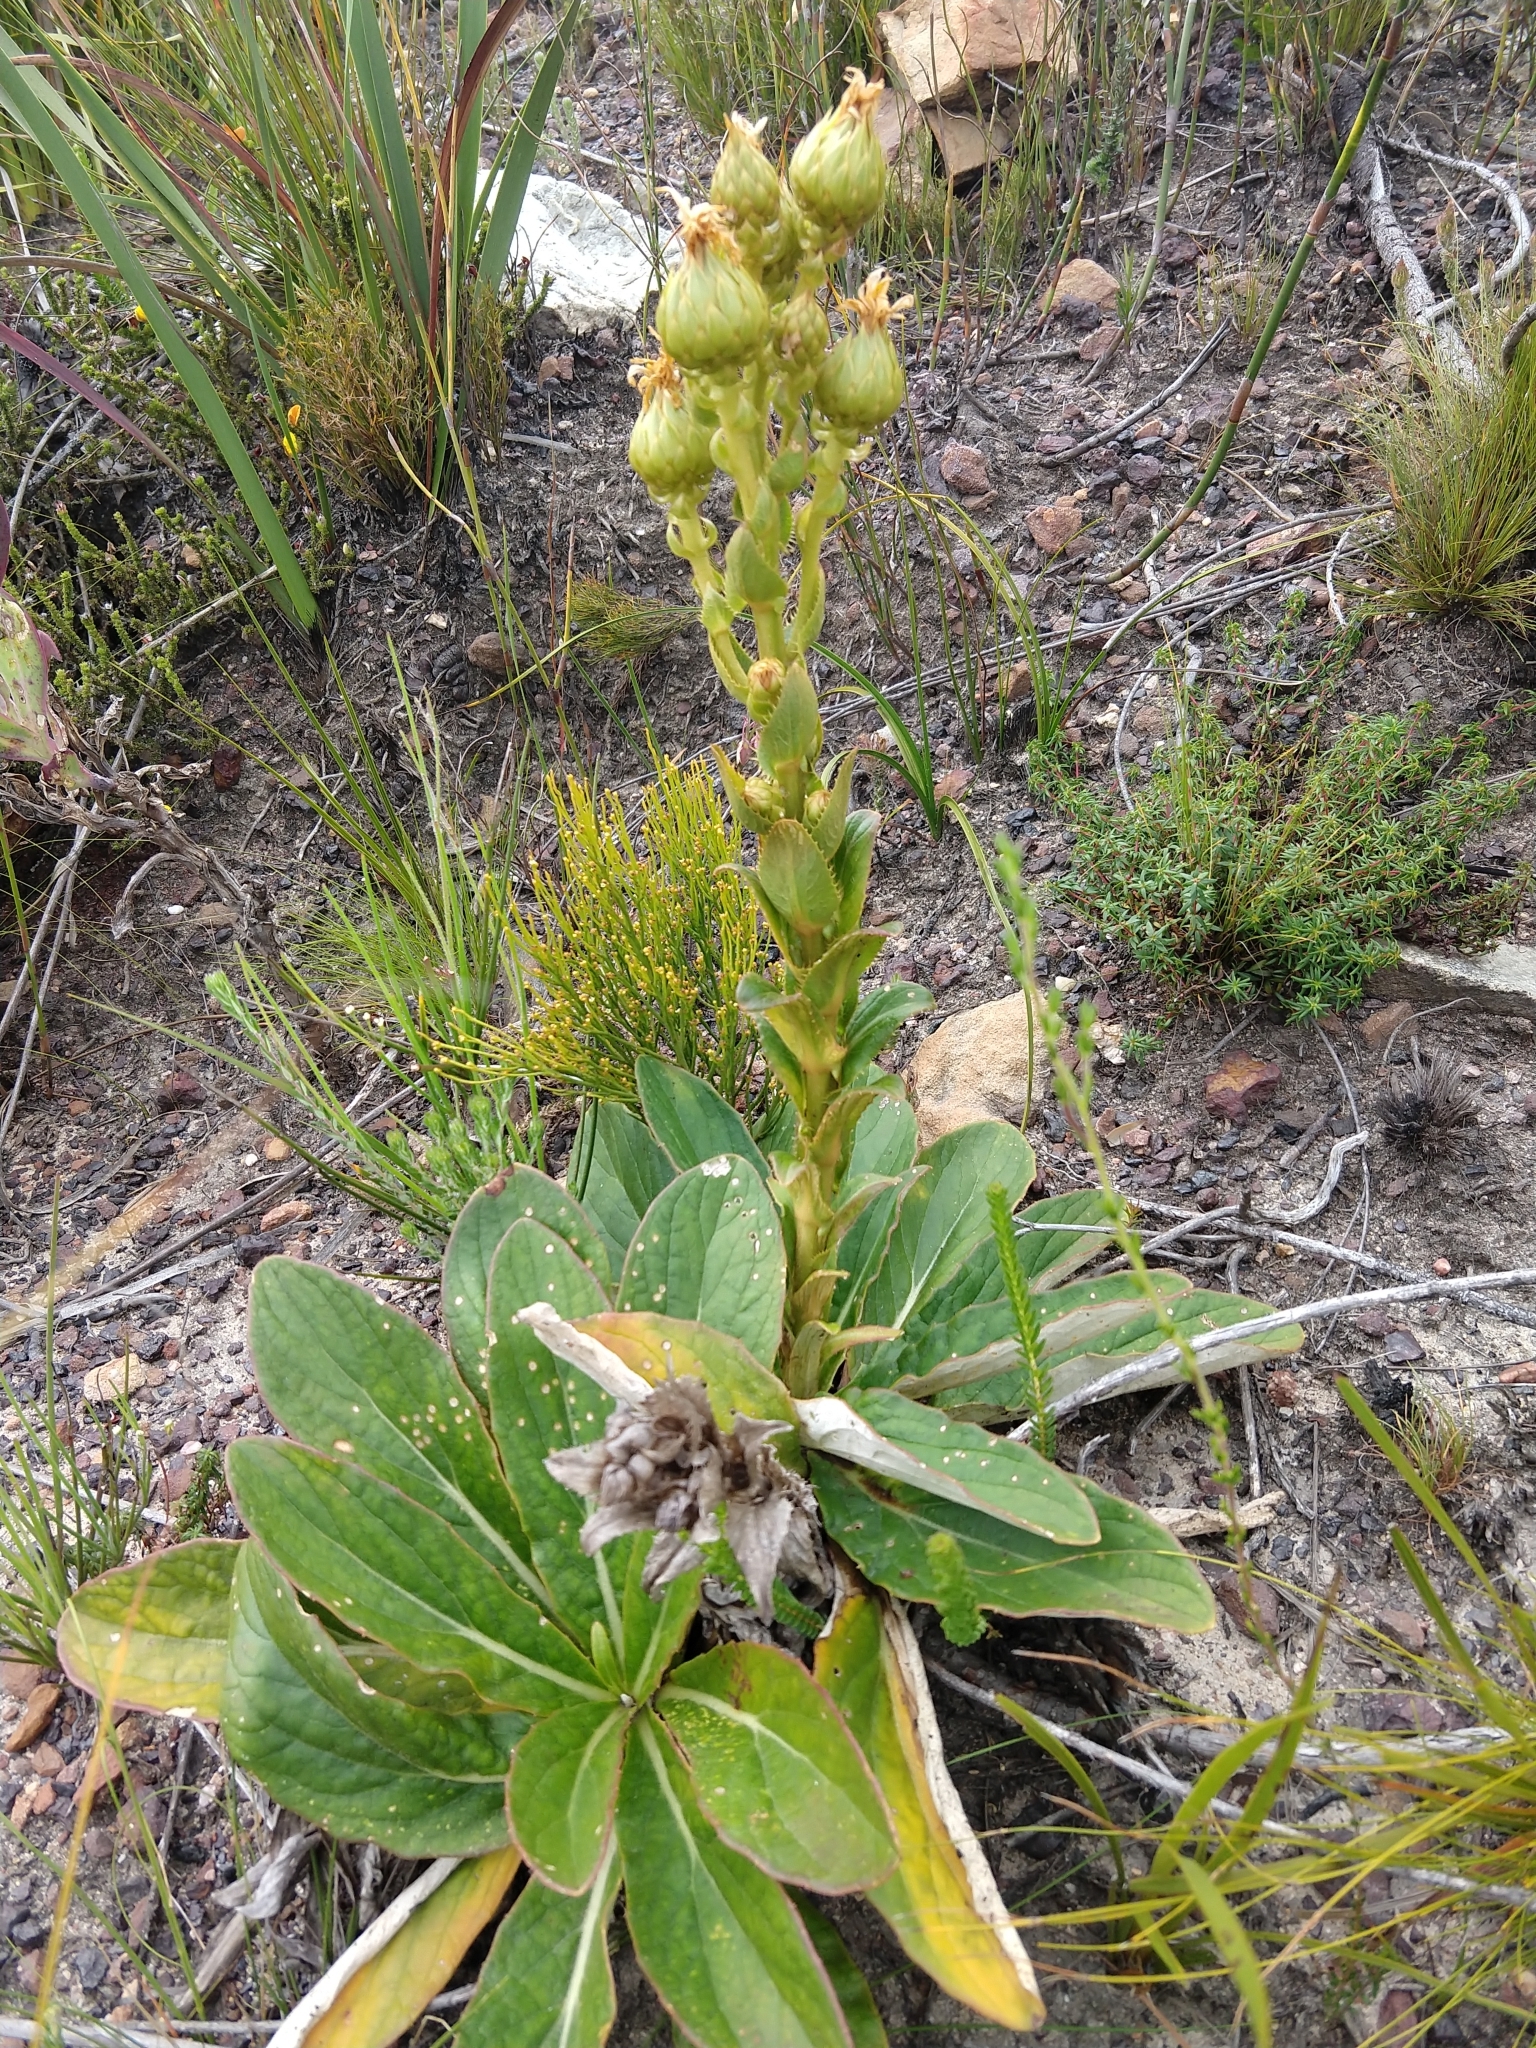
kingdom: Plantae
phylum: Tracheophyta
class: Magnoliopsida
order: Asterales
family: Asteraceae
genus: Berkheya
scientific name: Berkheya herbacea
